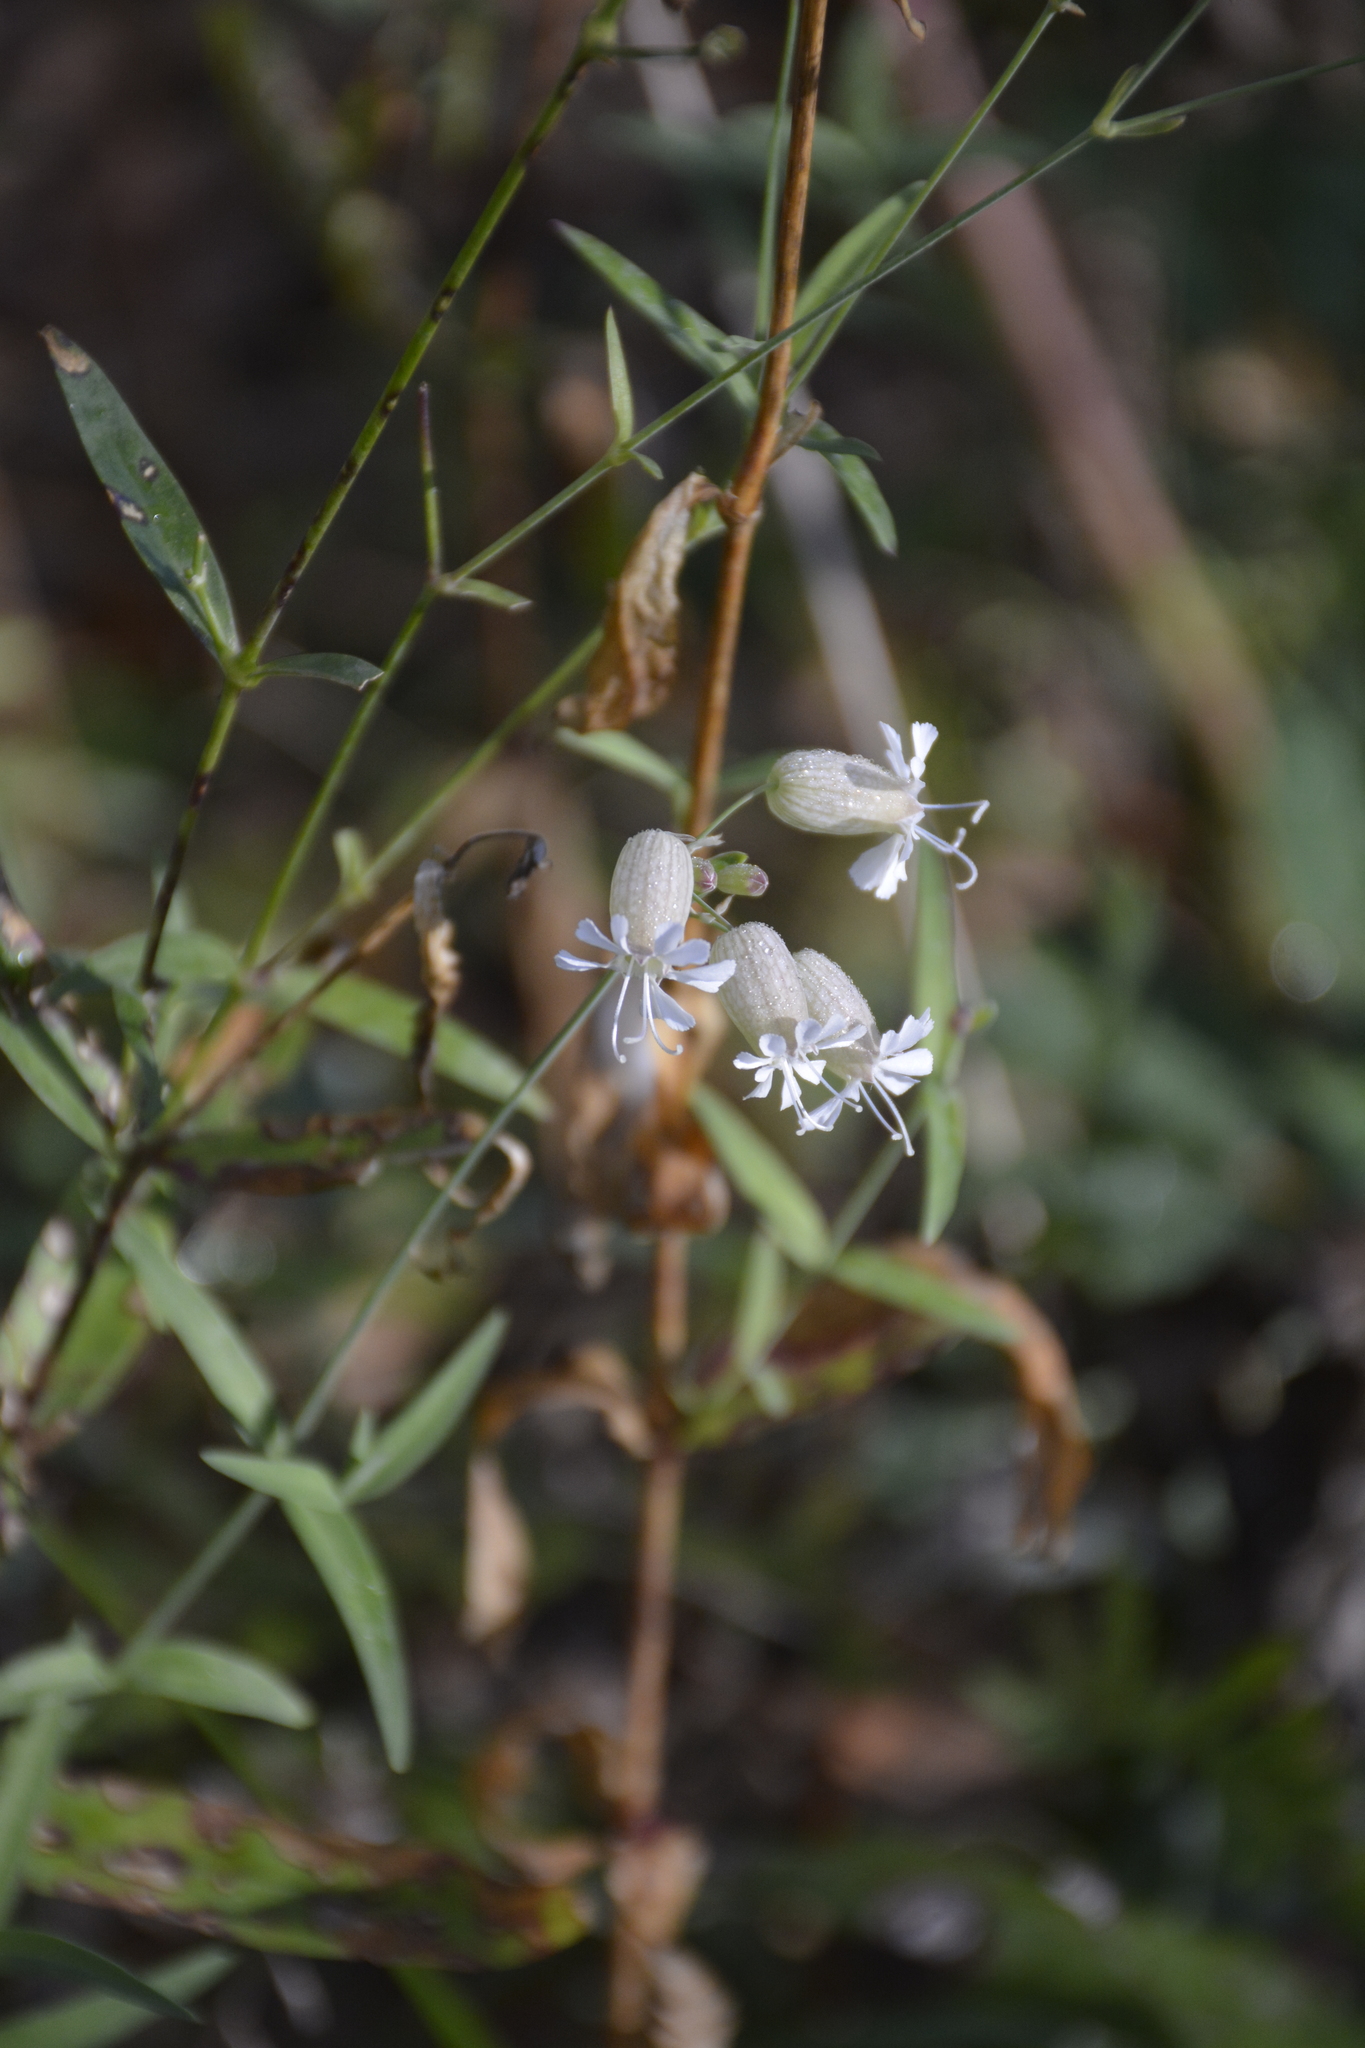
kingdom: Plantae
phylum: Tracheophyta
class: Magnoliopsida
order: Caryophyllales
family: Caryophyllaceae
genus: Silene
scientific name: Silene vulgaris
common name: Bladder campion
